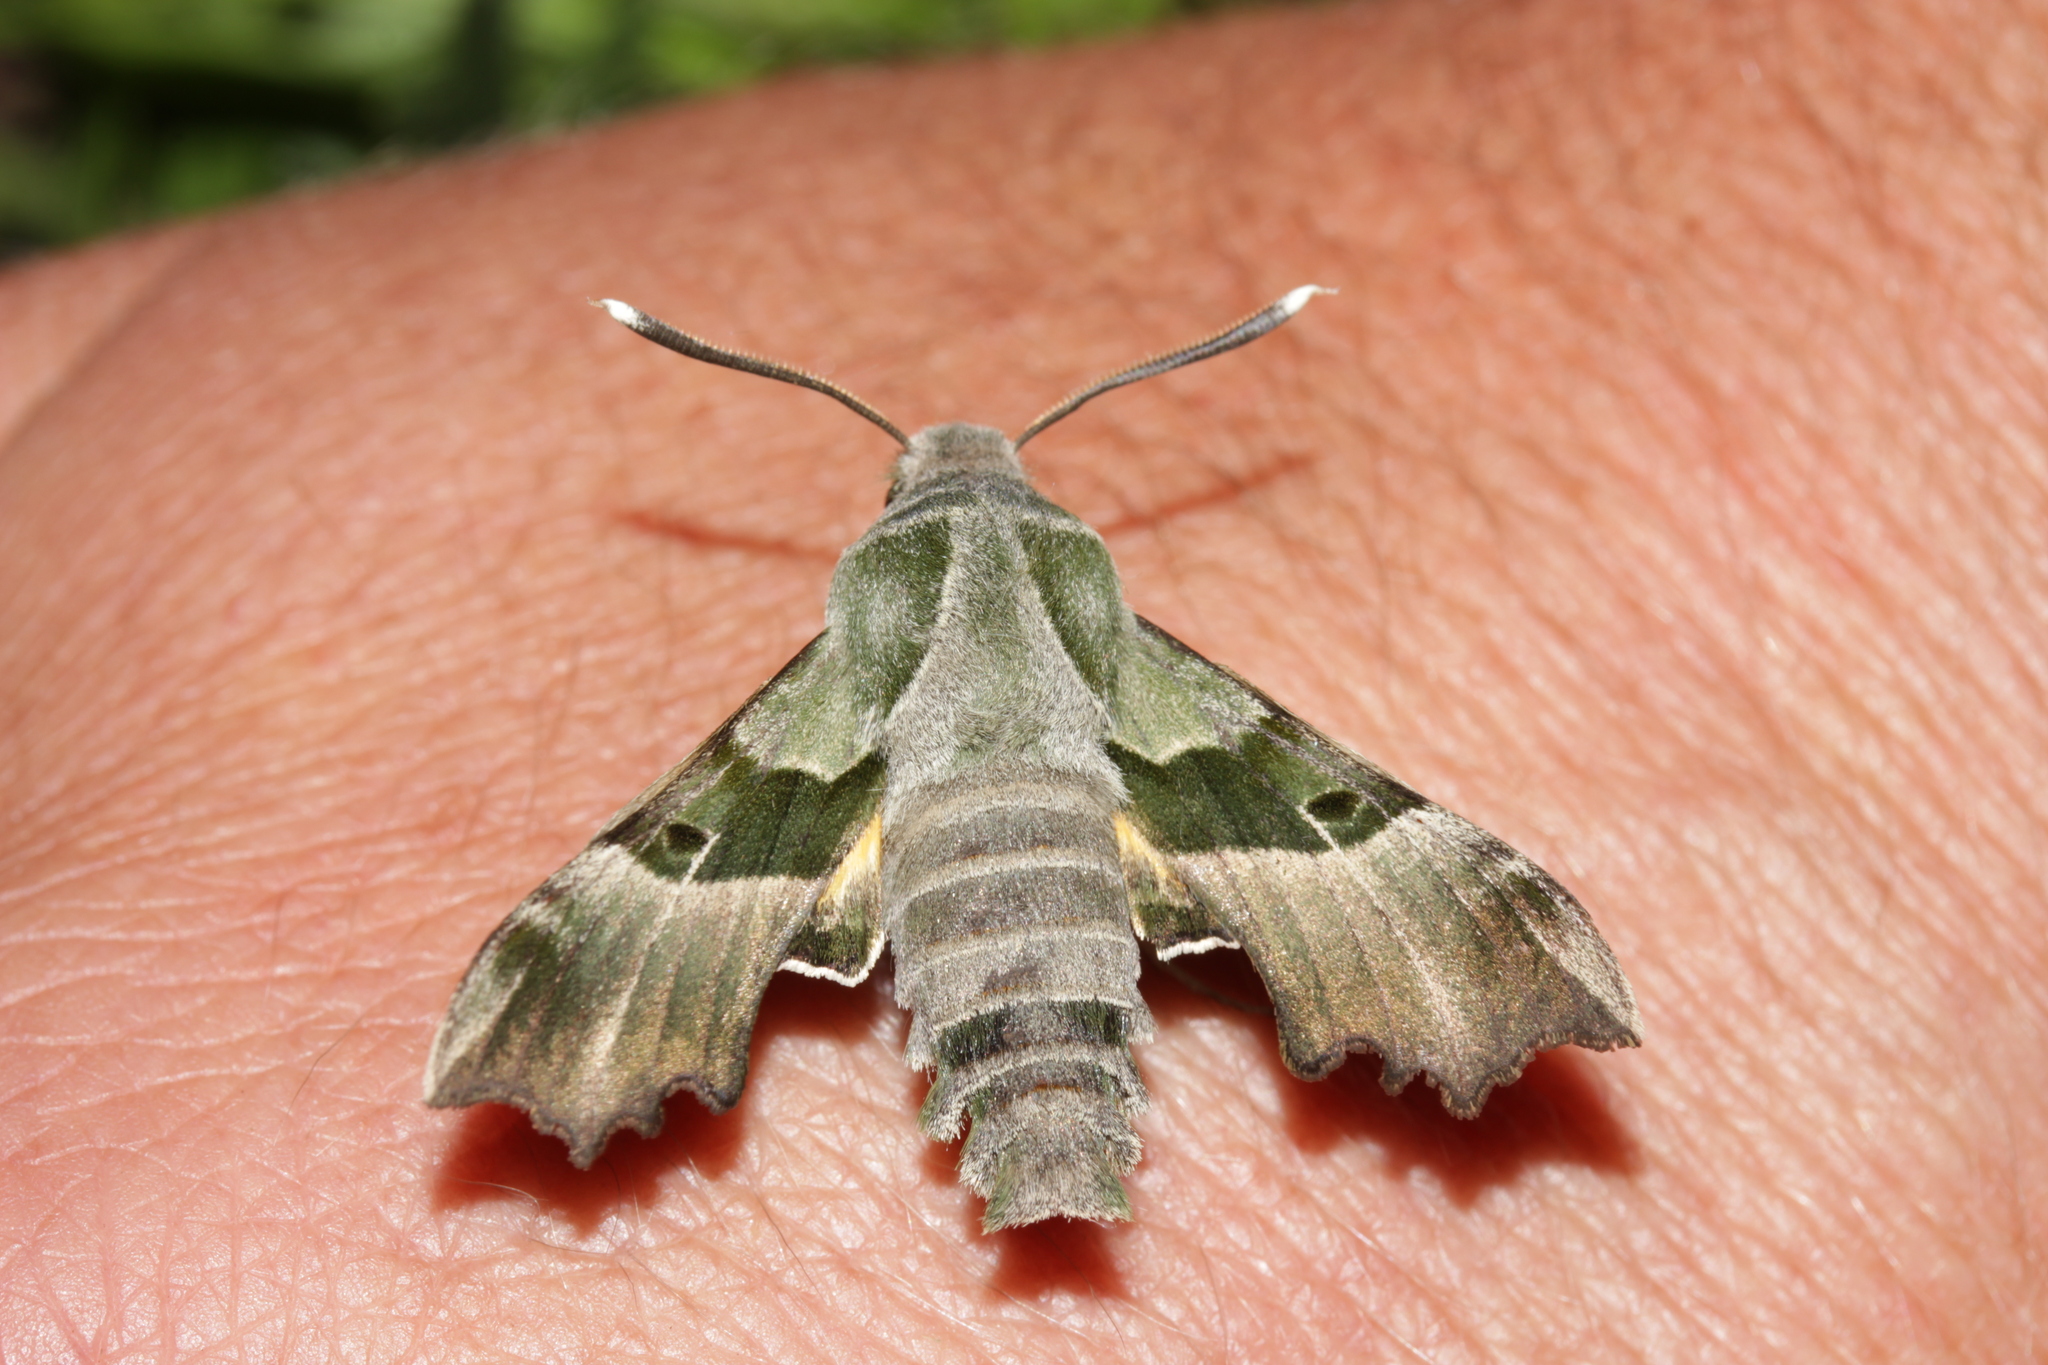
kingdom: Animalia
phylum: Arthropoda
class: Insecta
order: Lepidoptera
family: Sphingidae
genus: Proserpinus
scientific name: Proserpinus proserpina
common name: Willowherb hawkmoth
